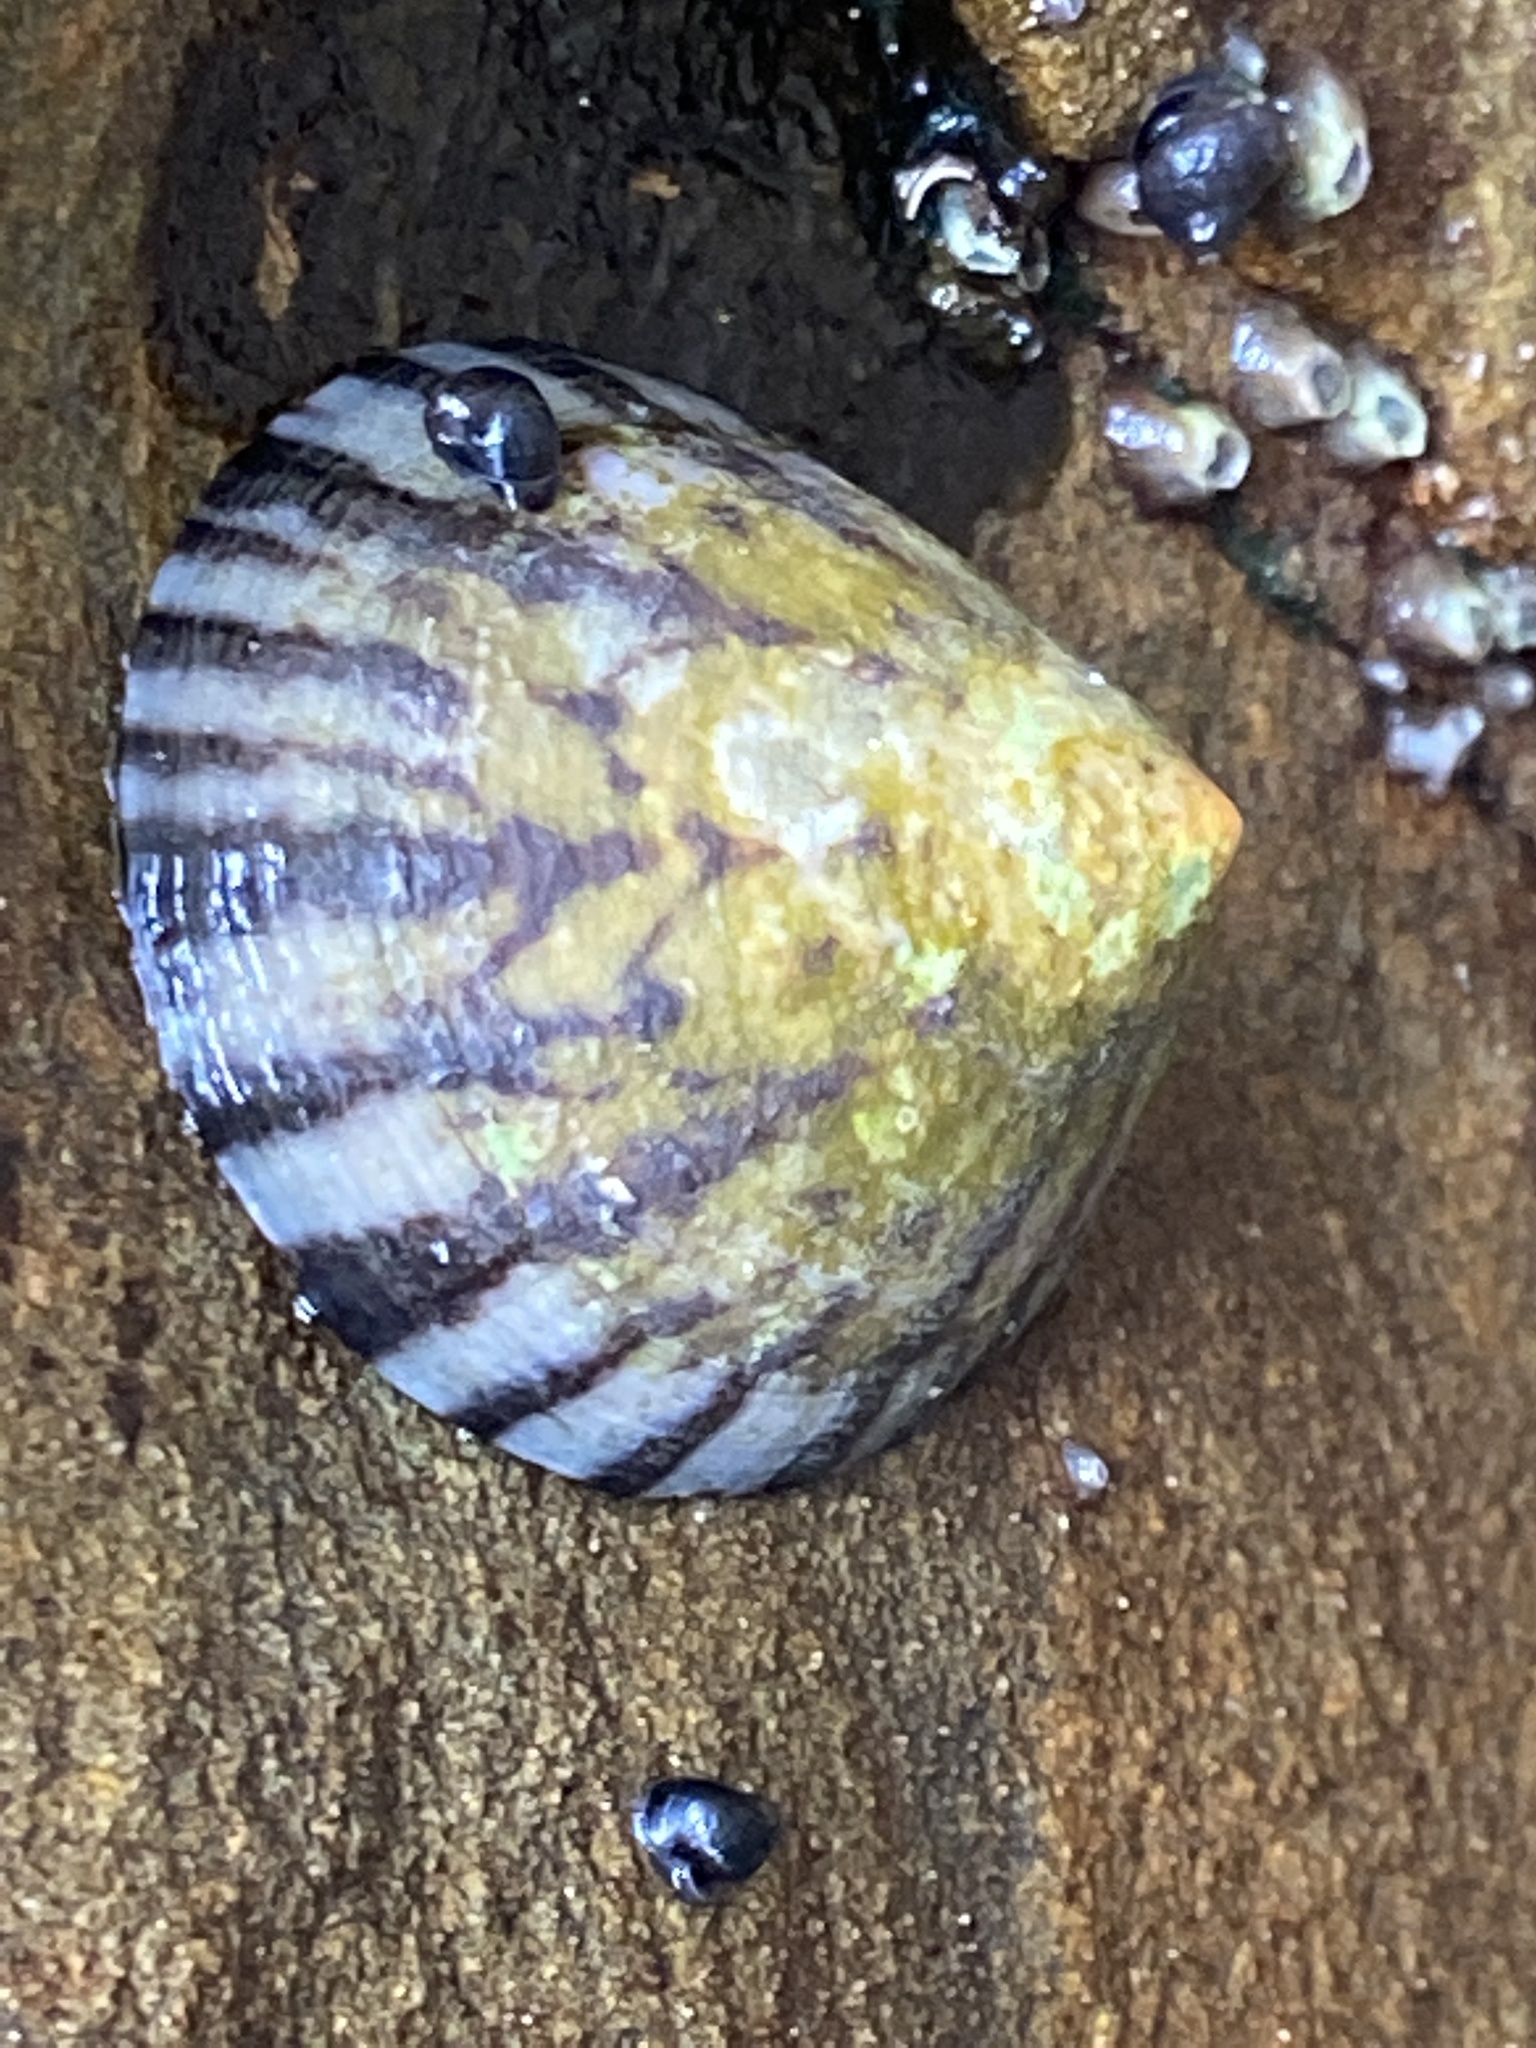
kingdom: Animalia
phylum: Mollusca
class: Gastropoda
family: Nacellidae
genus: Cellana
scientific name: Cellana strigilis
